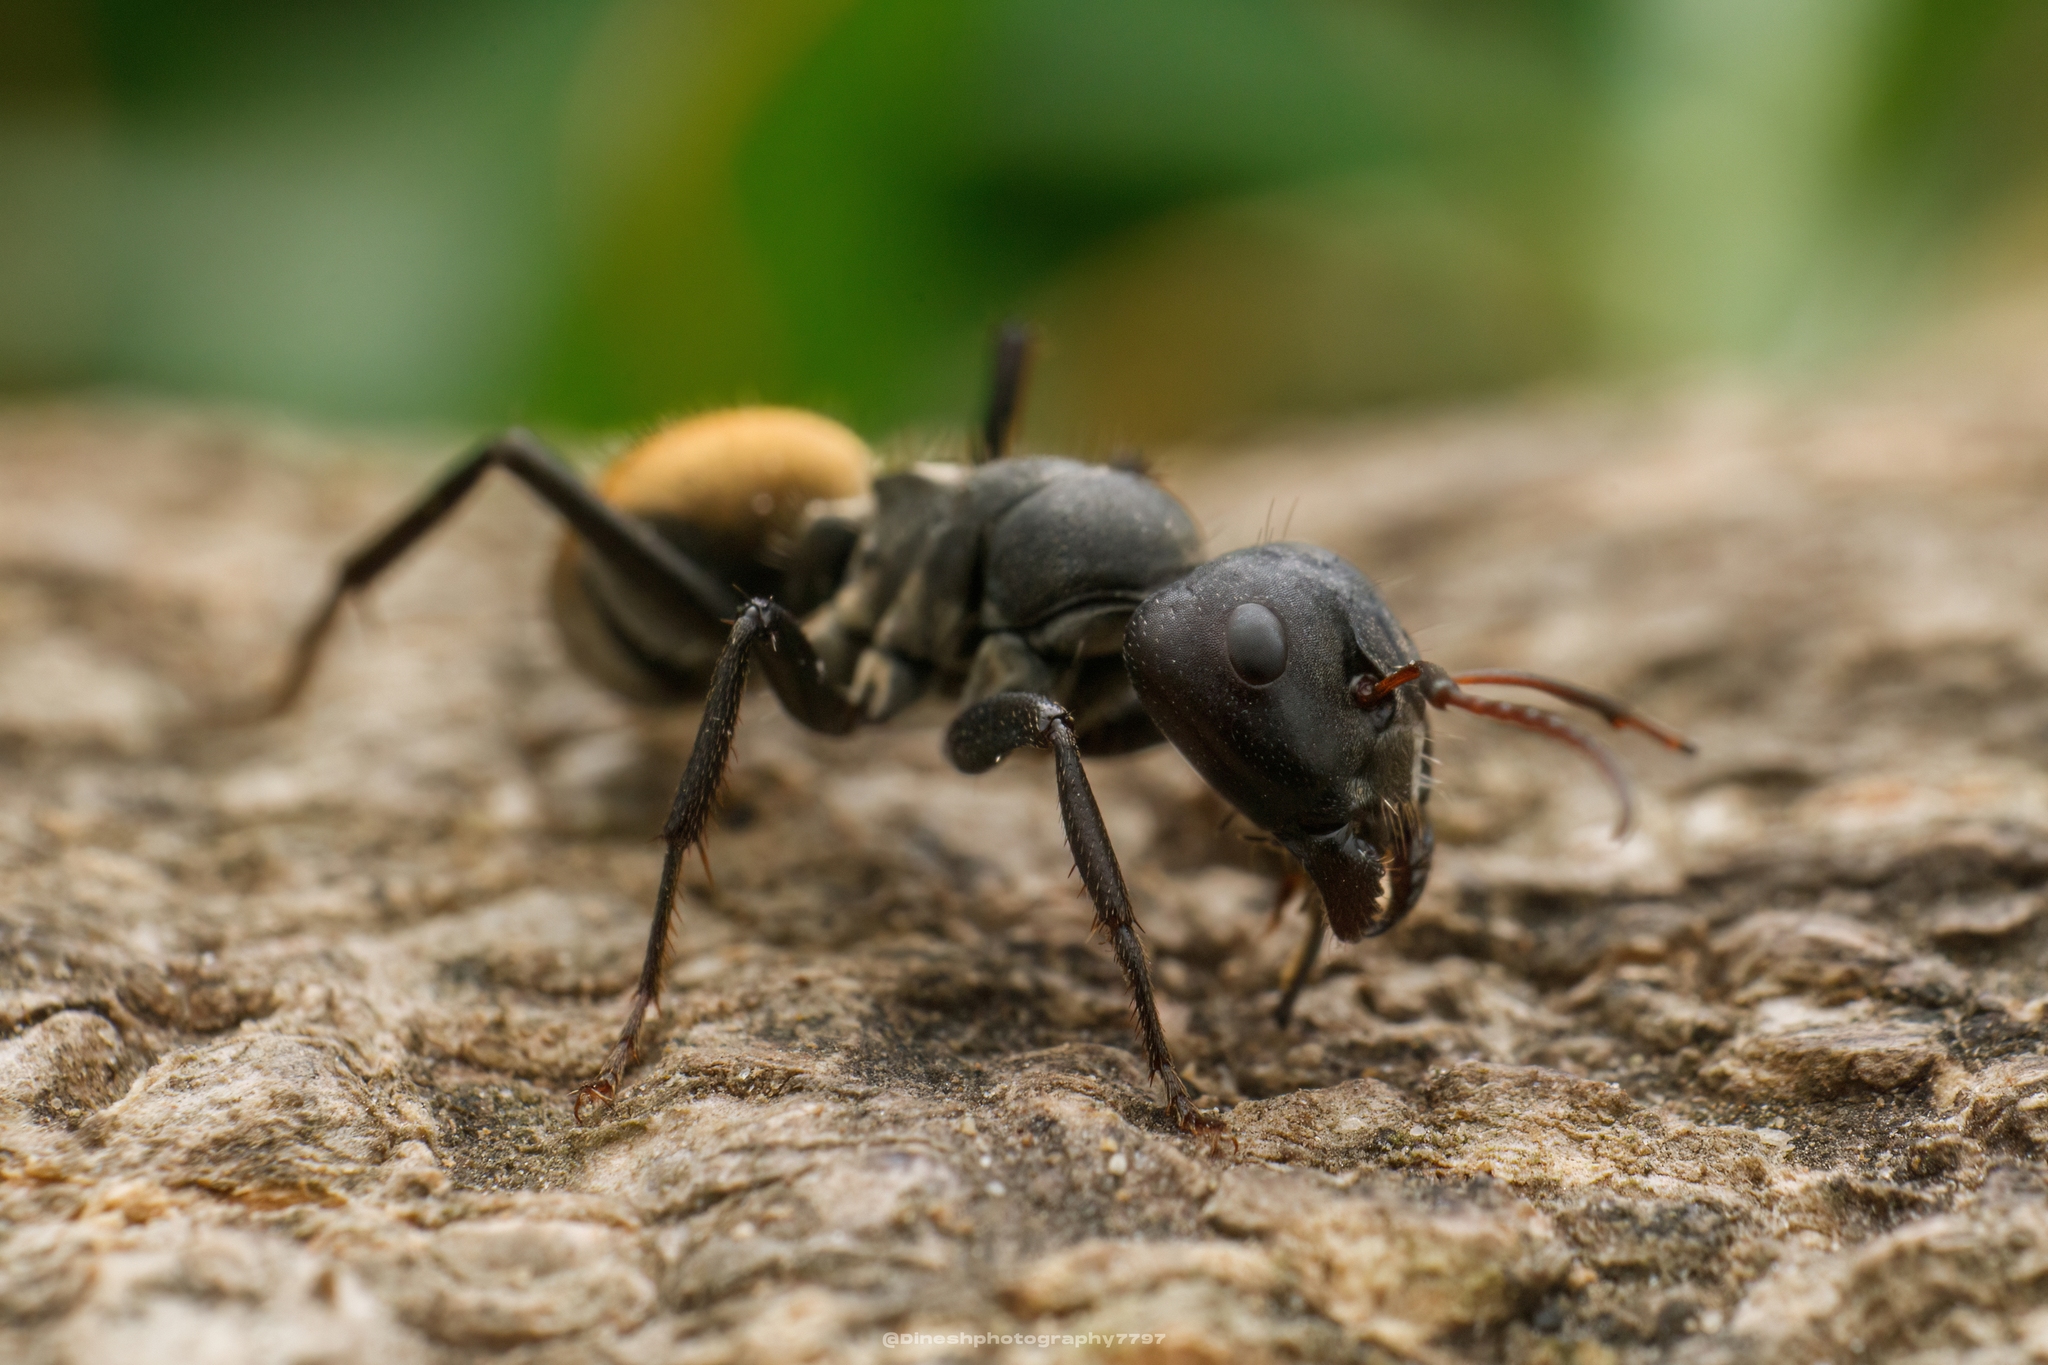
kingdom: Animalia
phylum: Arthropoda
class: Insecta
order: Hymenoptera
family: Formicidae
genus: Camponotus
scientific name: Camponotus sericeus
